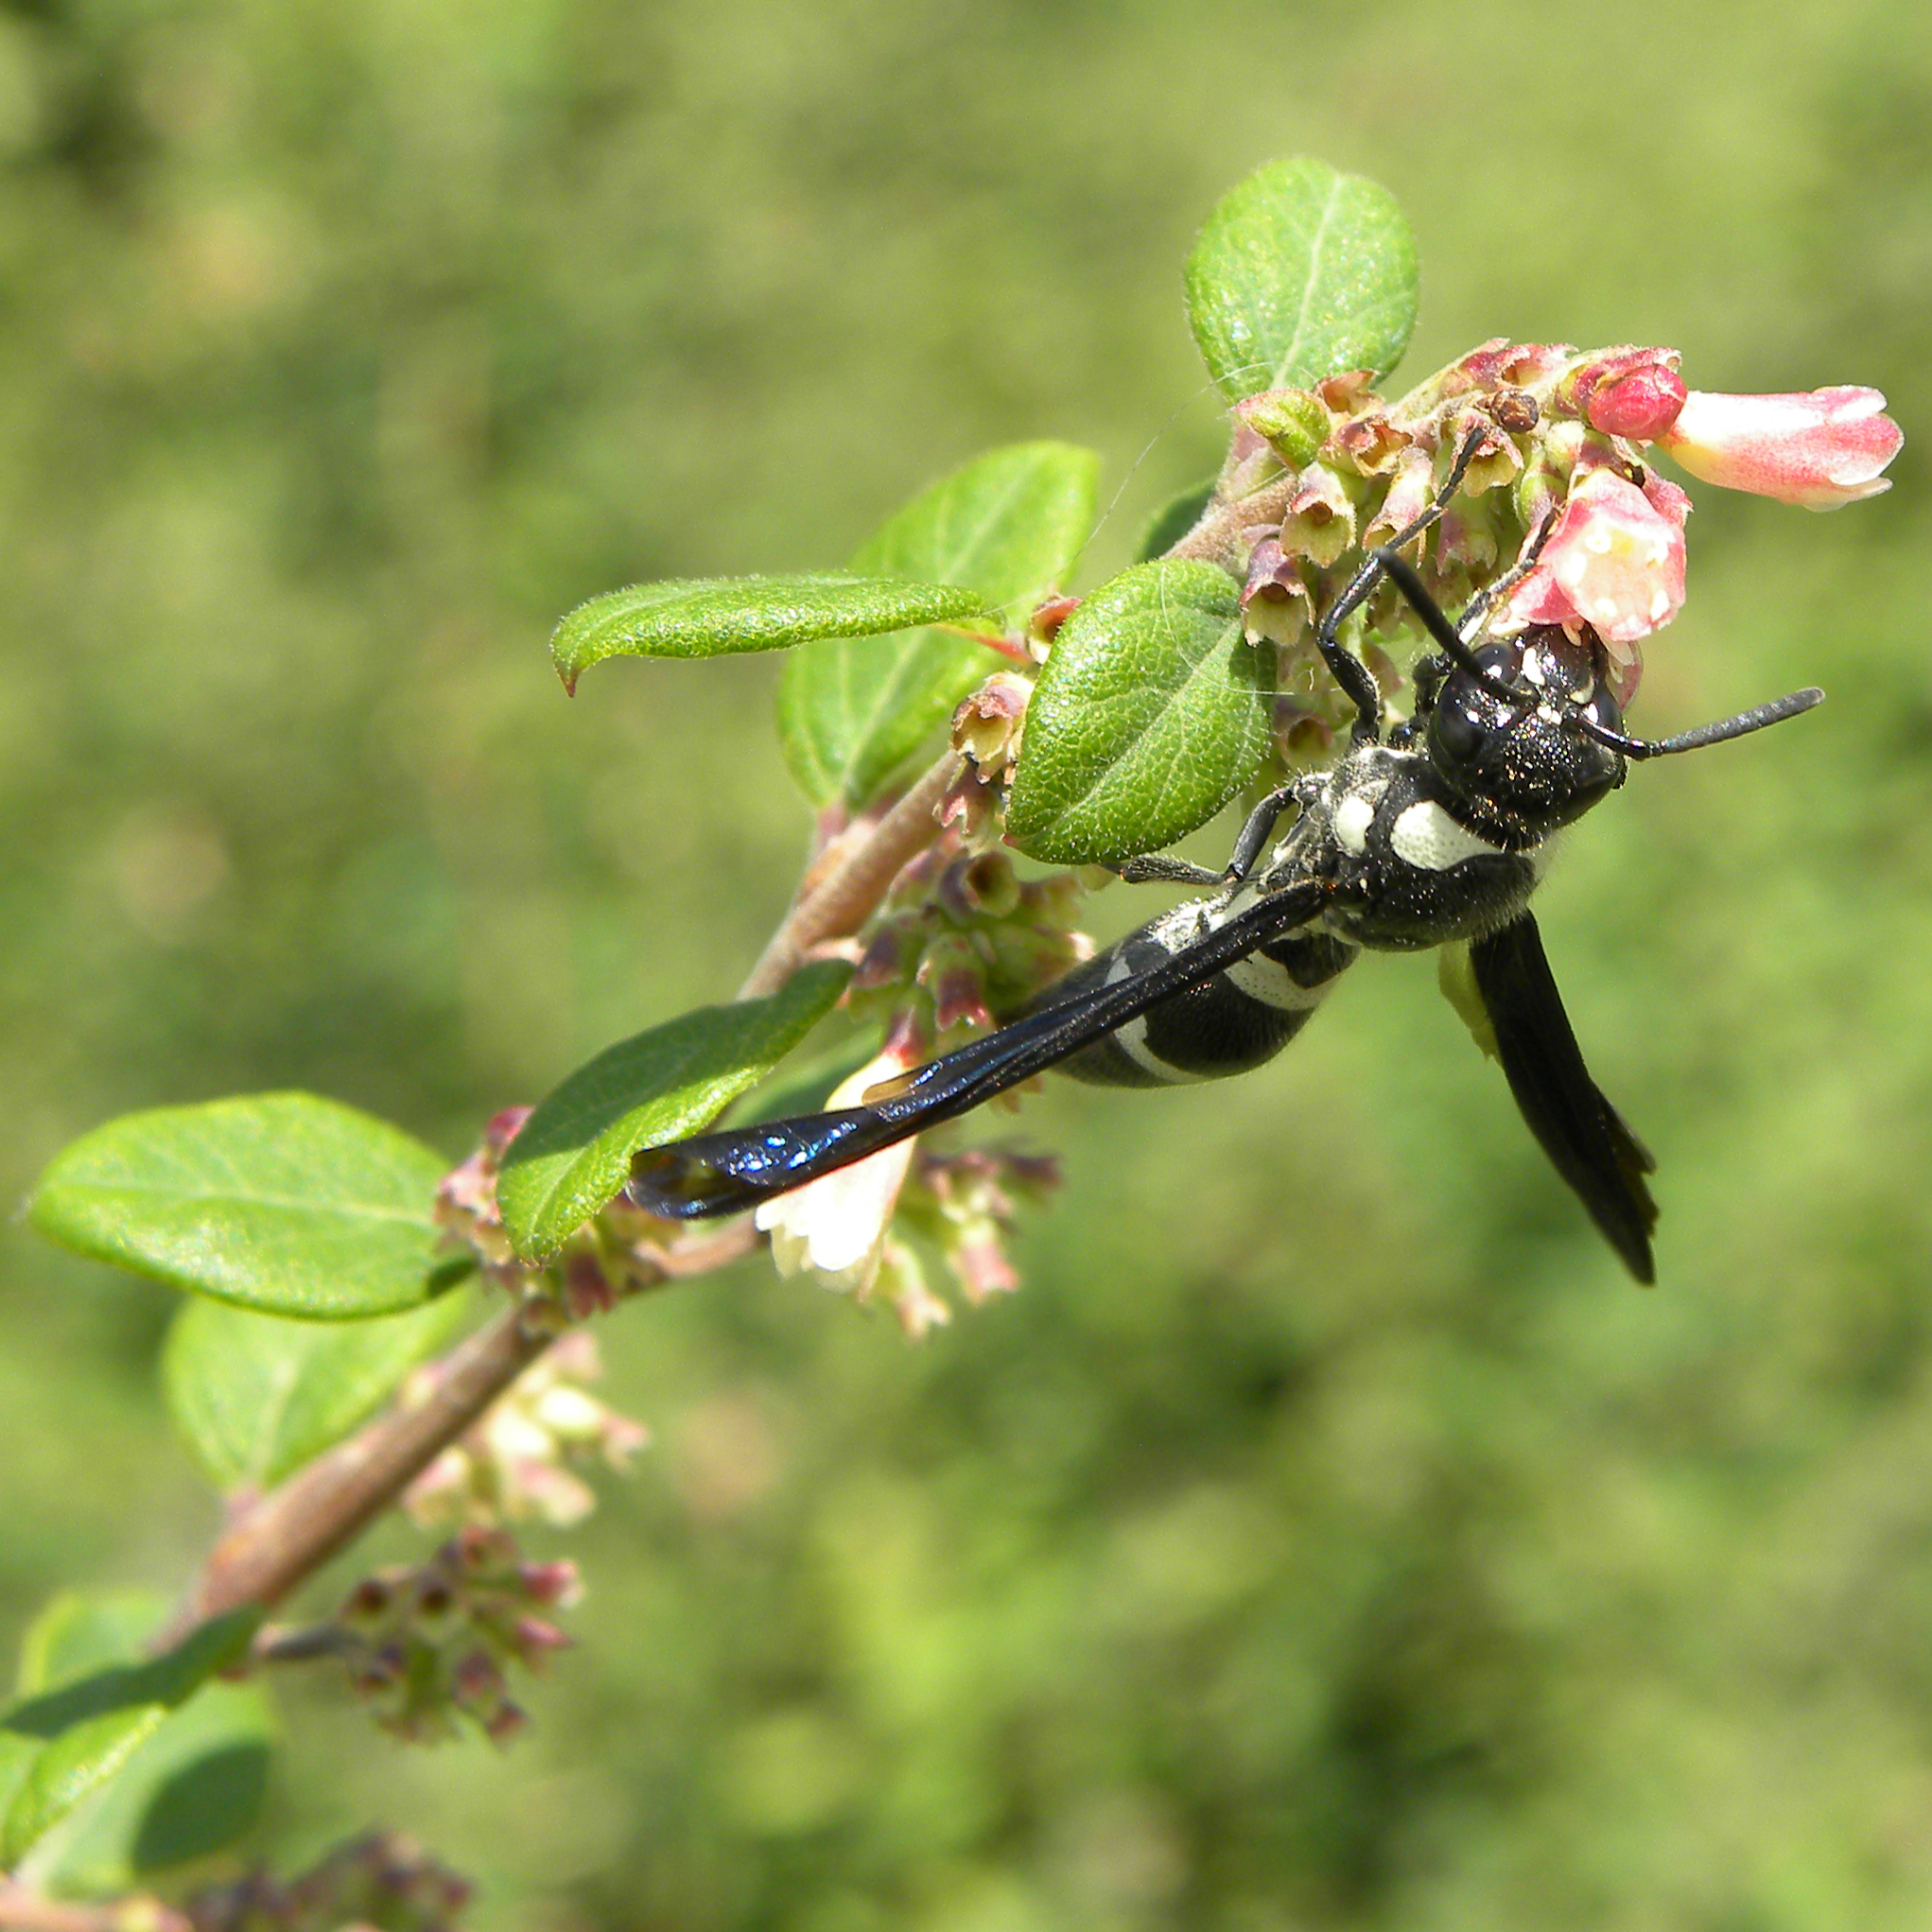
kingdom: Animalia
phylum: Arthropoda
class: Insecta
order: Hymenoptera
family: Eumenidae
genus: Pseudodynerus
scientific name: Pseudodynerus quadrisectus
